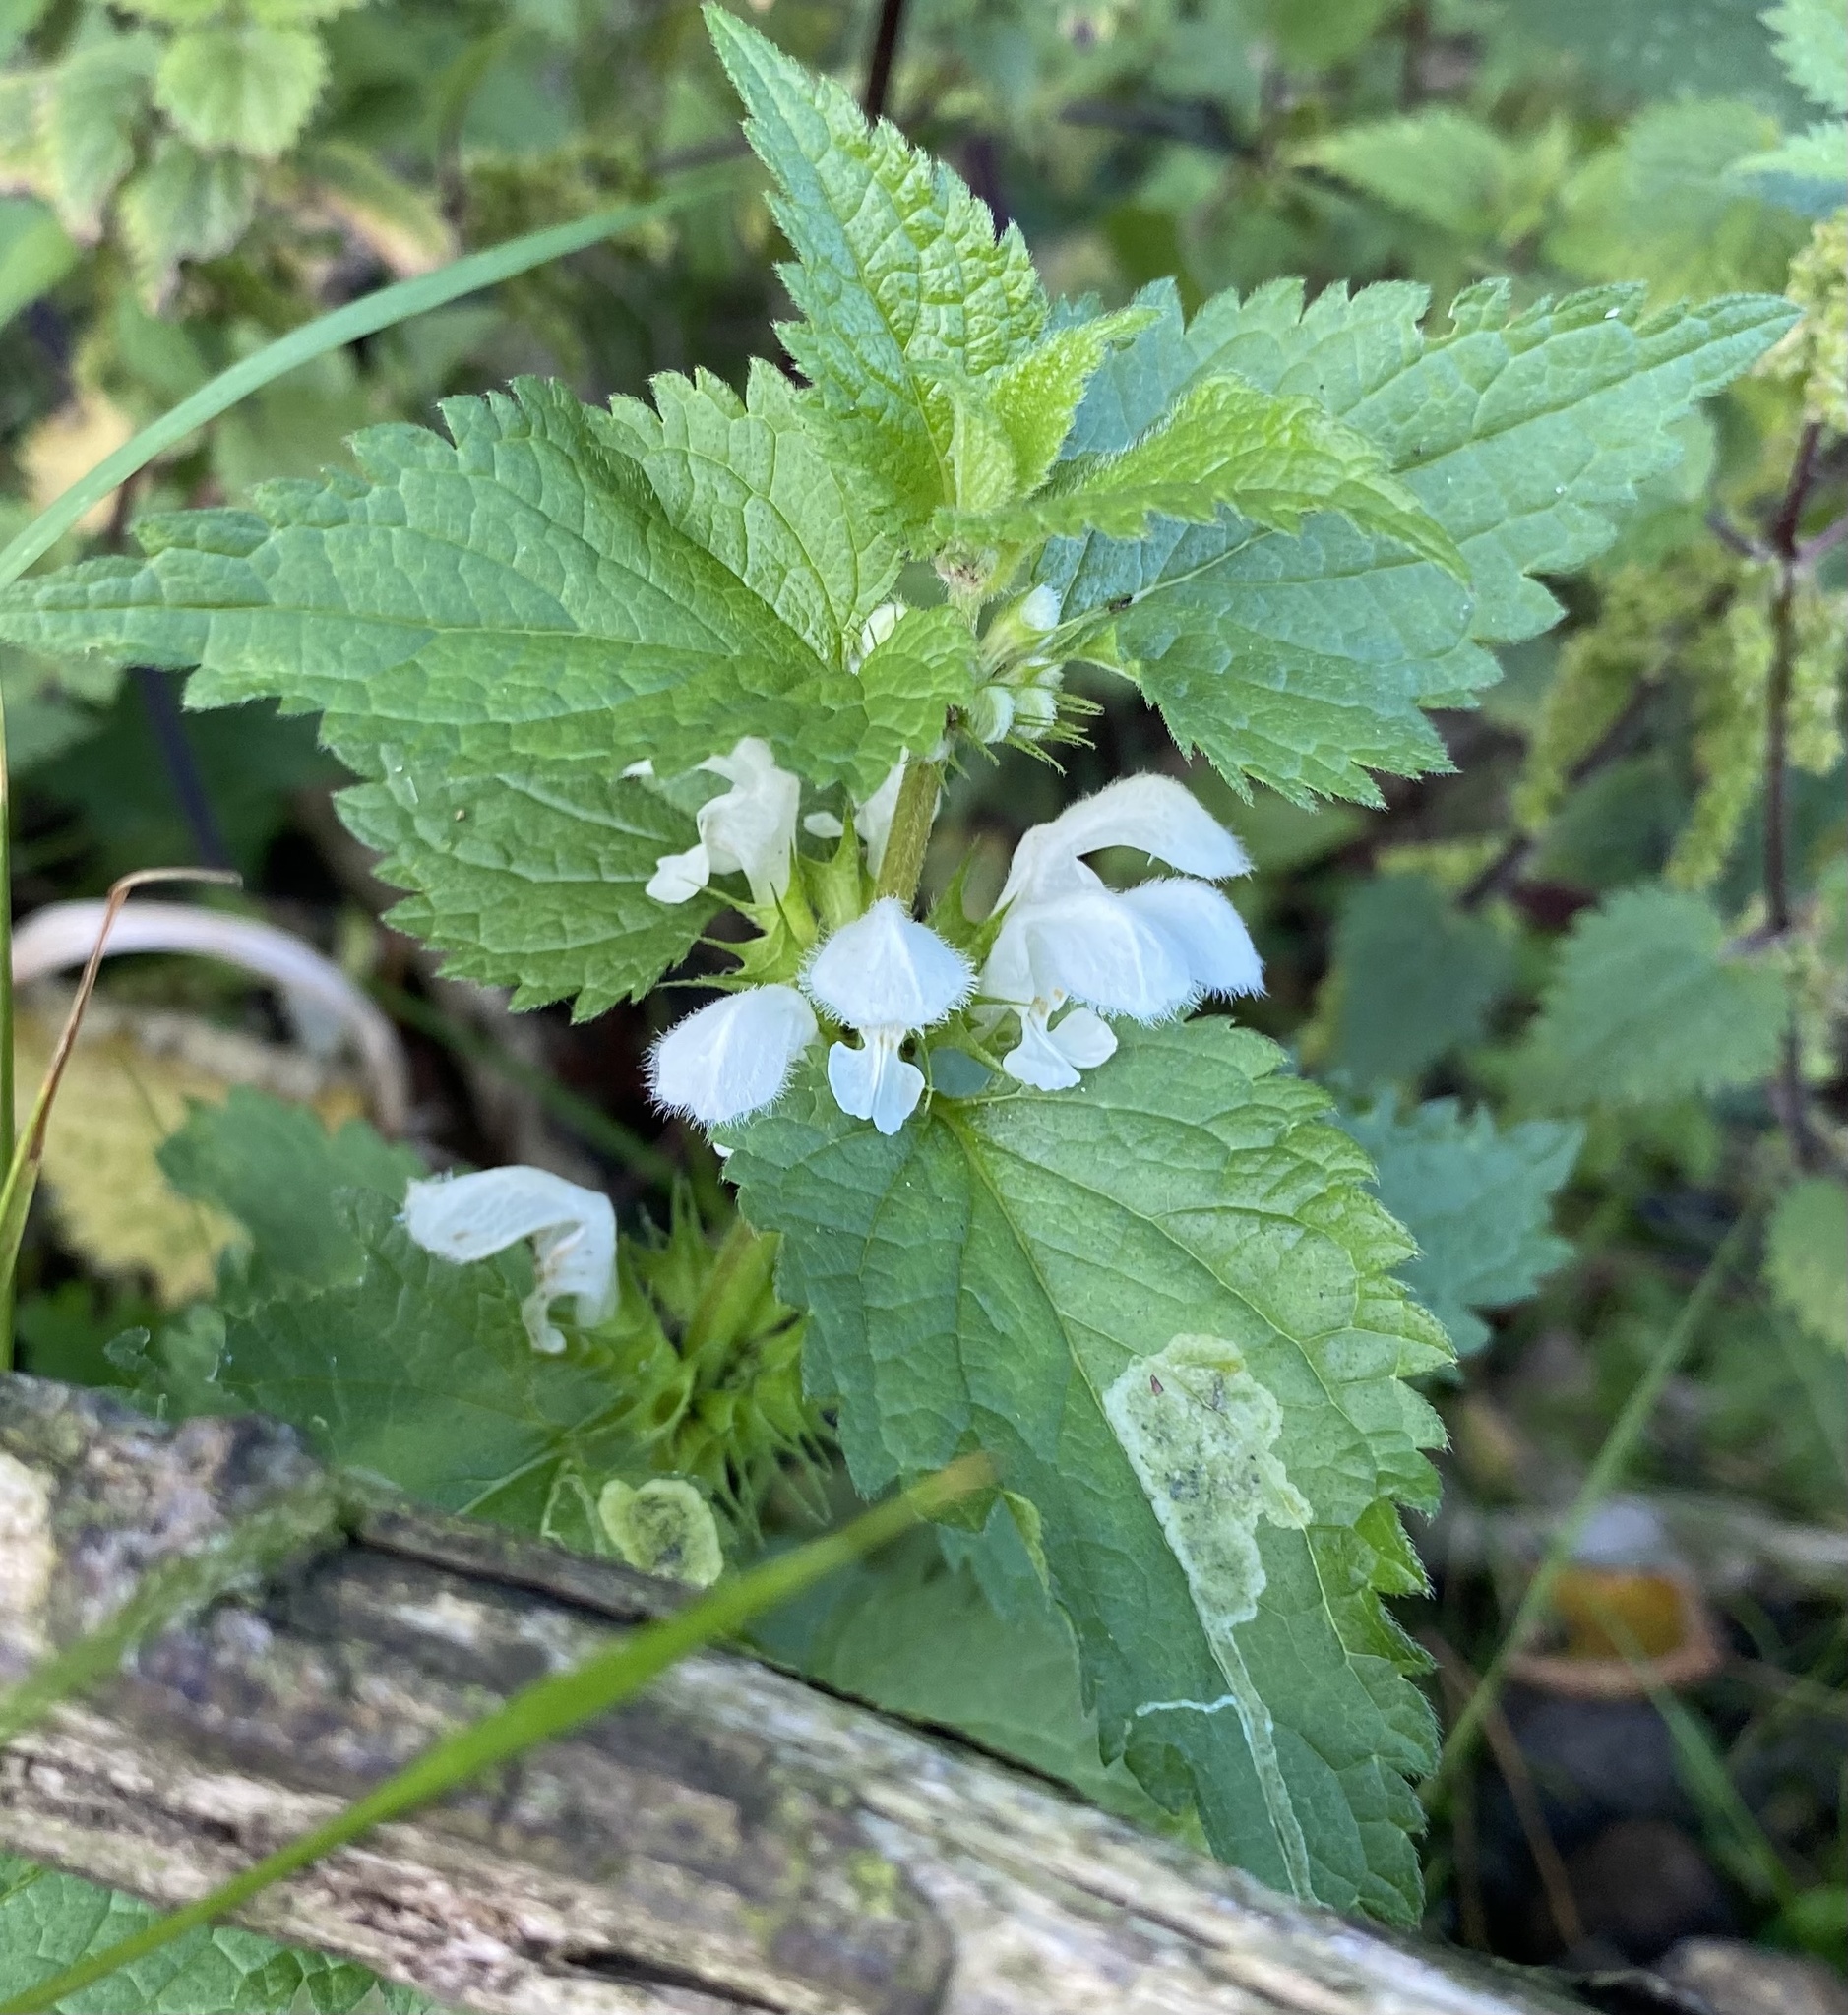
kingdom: Animalia
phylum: Arthropoda
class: Insecta
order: Diptera
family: Agromyzidae
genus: Amauromyza
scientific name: Amauromyza labiatarum
